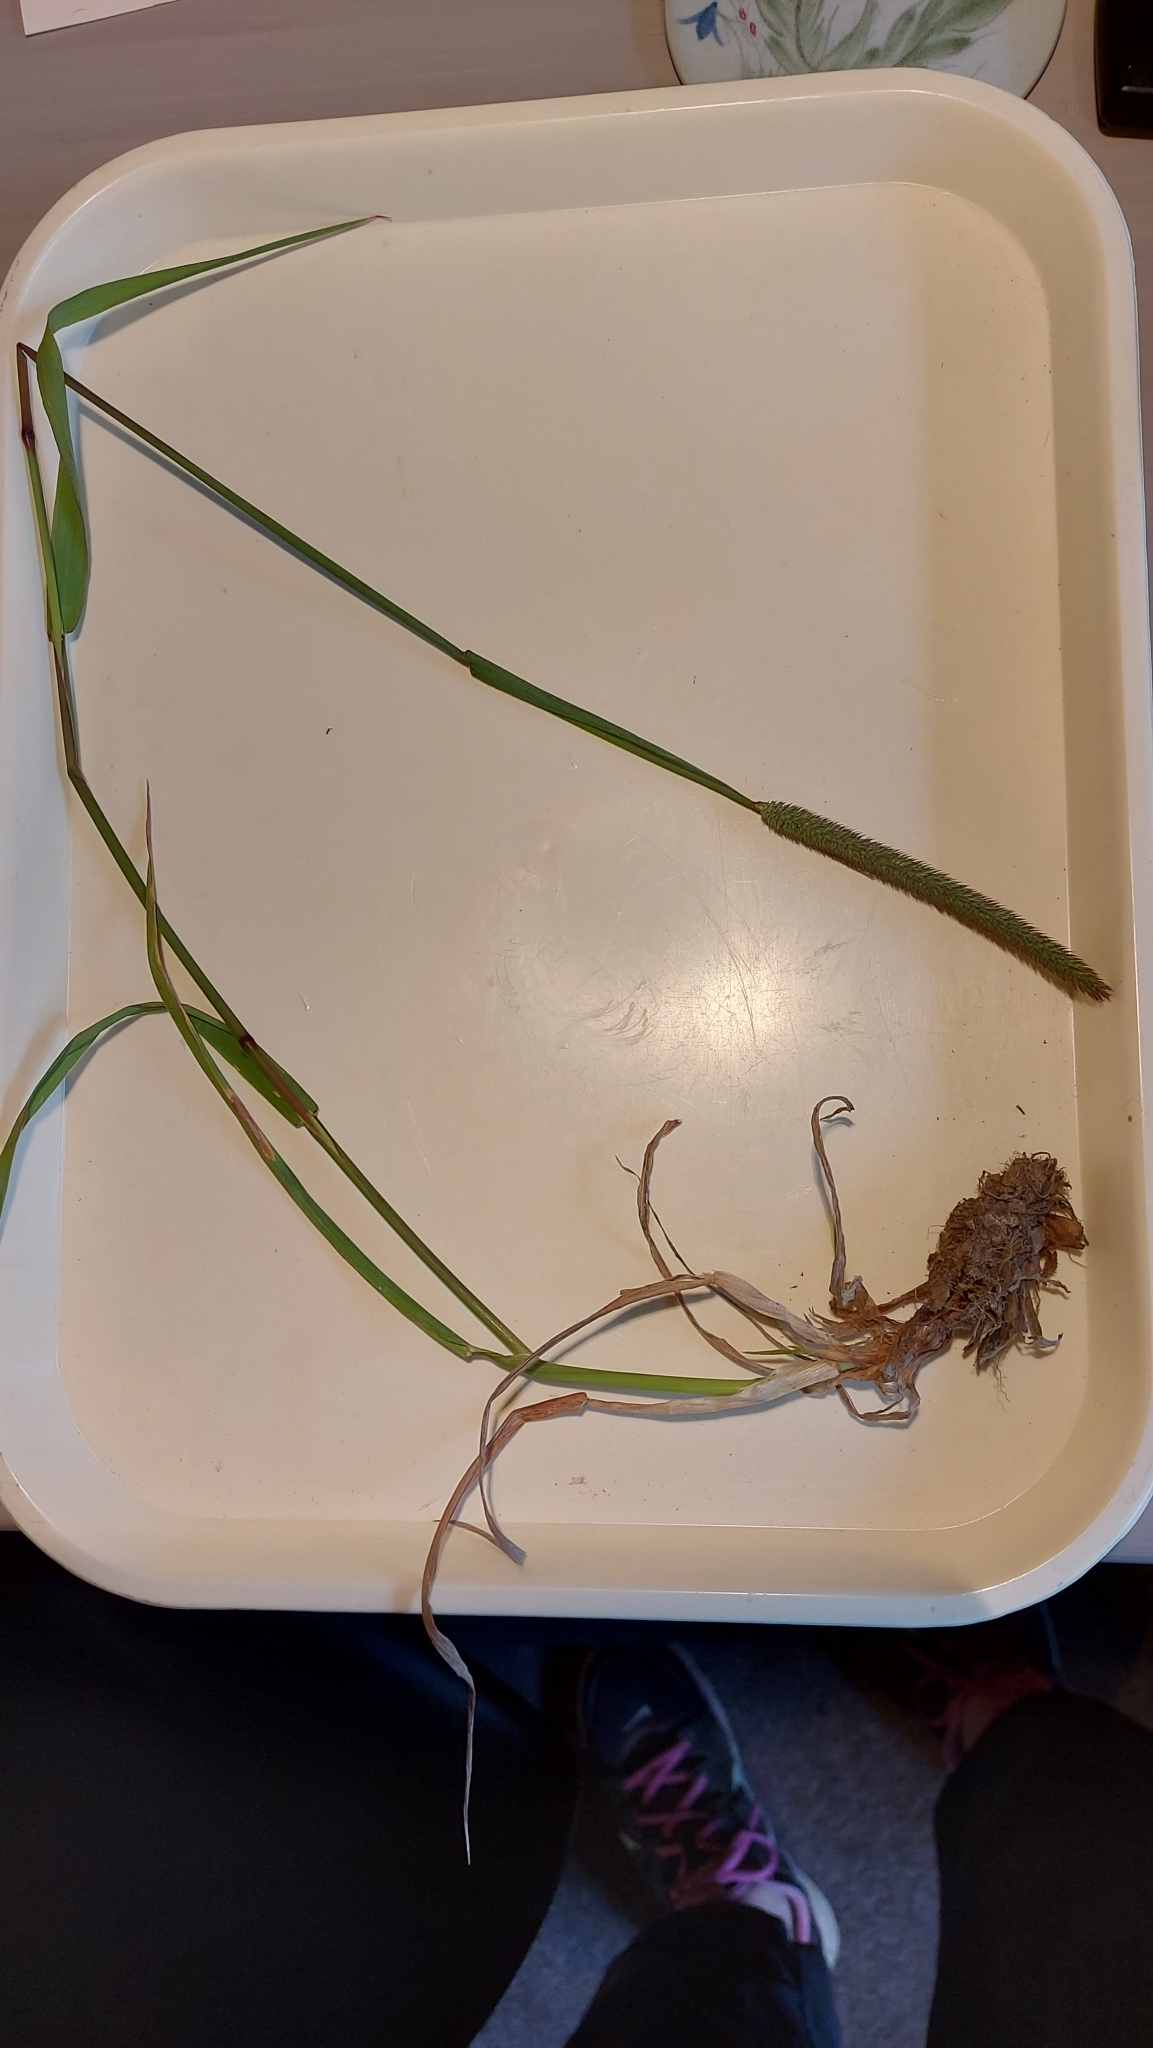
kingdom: Plantae
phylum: Tracheophyta
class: Liliopsida
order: Poales
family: Poaceae
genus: Phleum
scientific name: Phleum pratense
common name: Timothy grass
